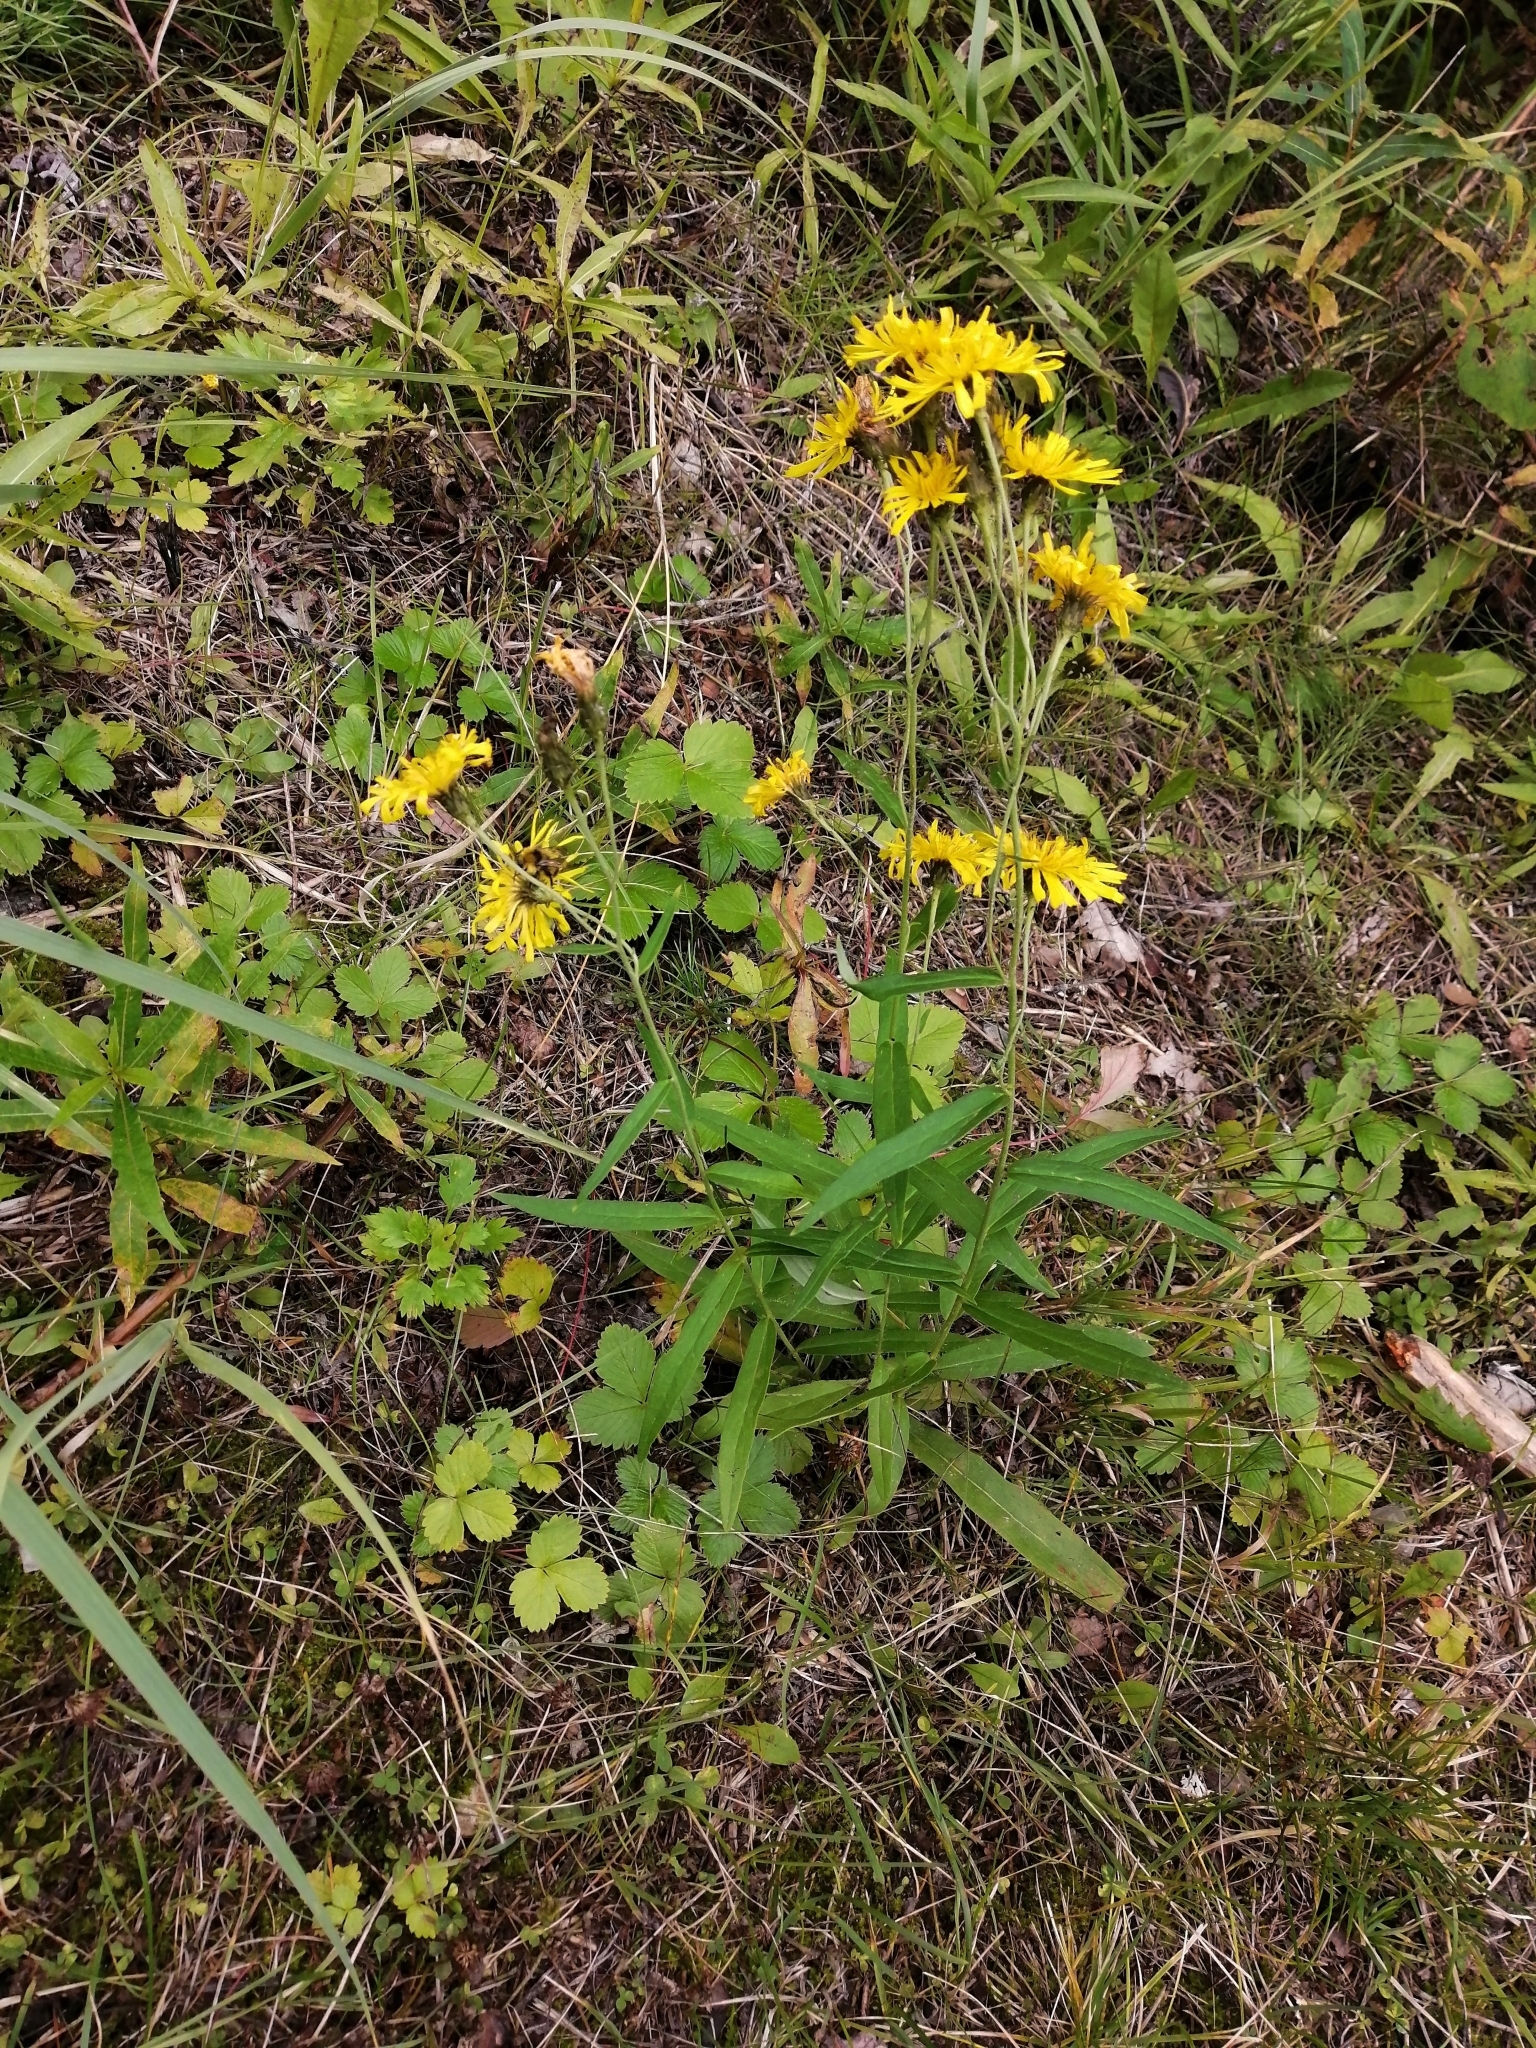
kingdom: Plantae
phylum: Tracheophyta
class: Magnoliopsida
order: Asterales
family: Asteraceae
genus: Hieracium
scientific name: Hieracium umbellatum
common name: Northern hawkweed
